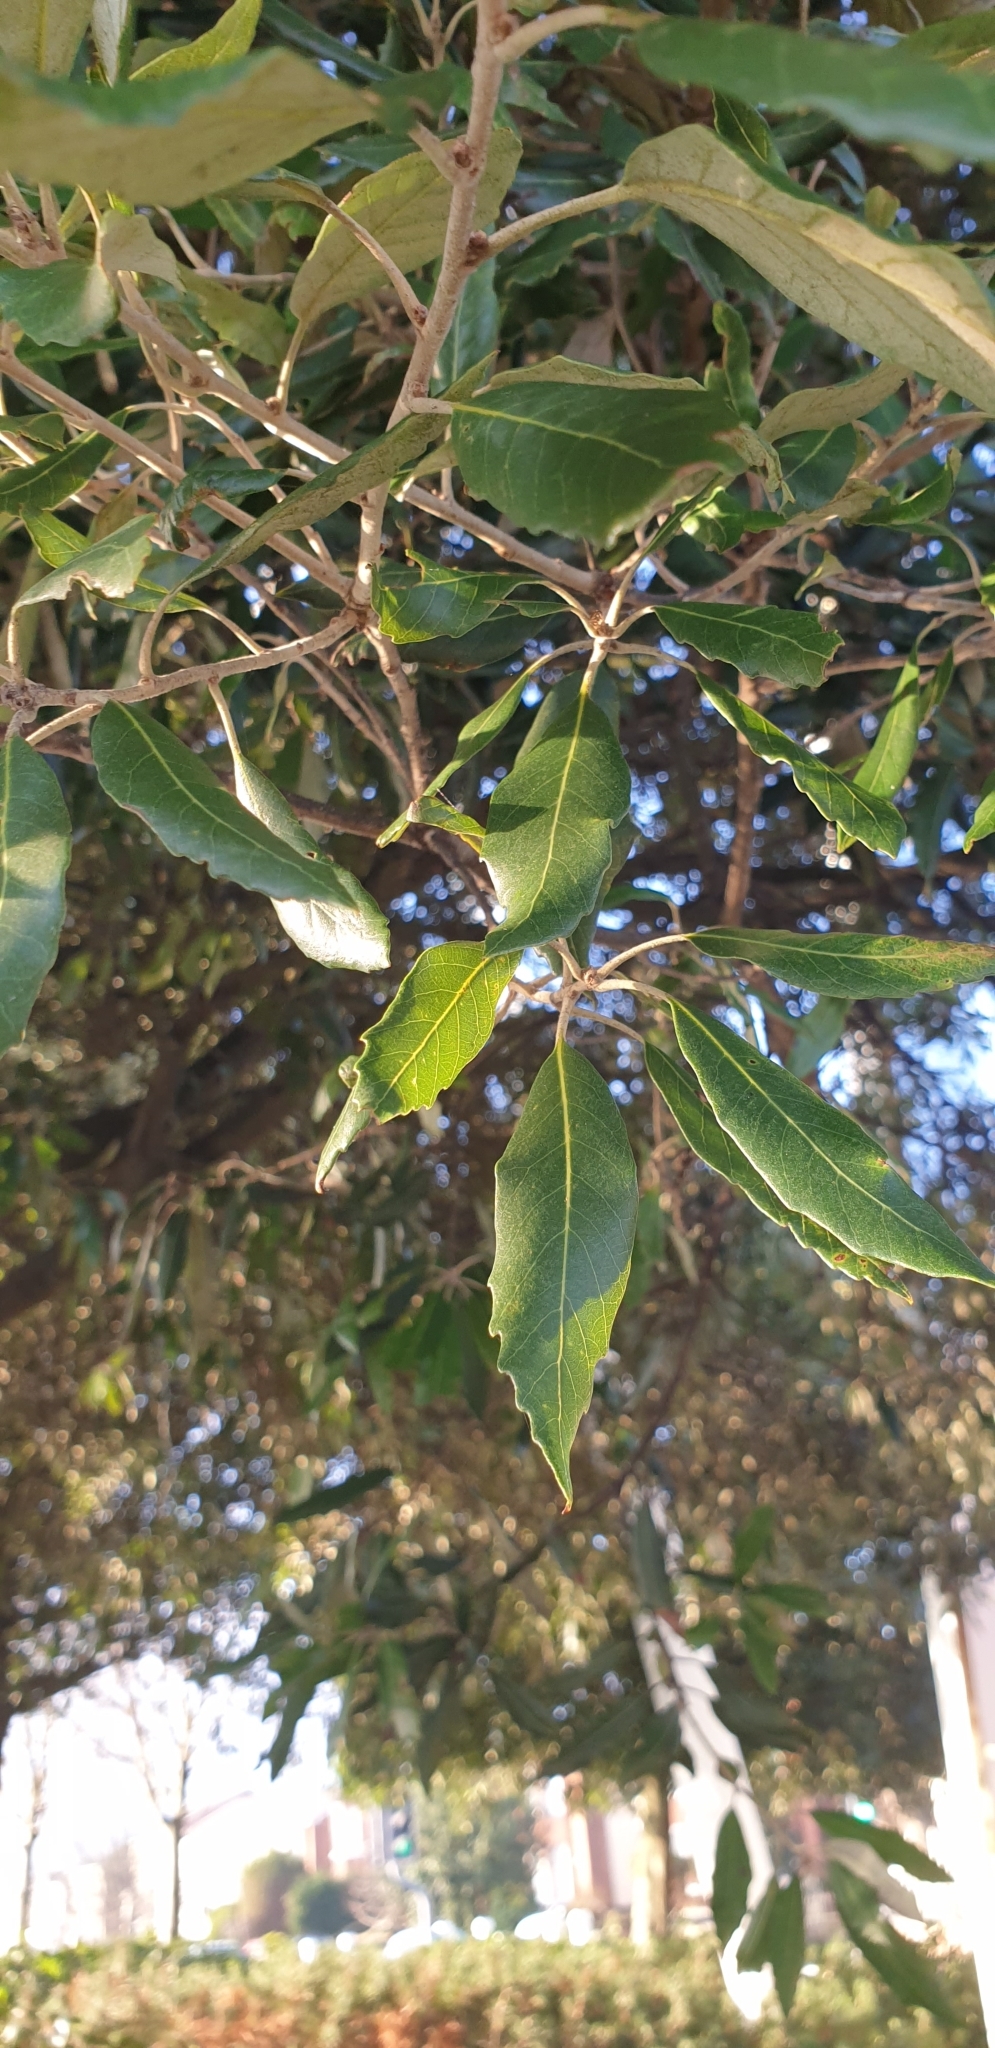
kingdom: Plantae
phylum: Tracheophyta
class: Magnoliopsida
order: Fagales
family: Fagaceae
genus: Quercus
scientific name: Quercus ilex
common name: Evergreen oak
